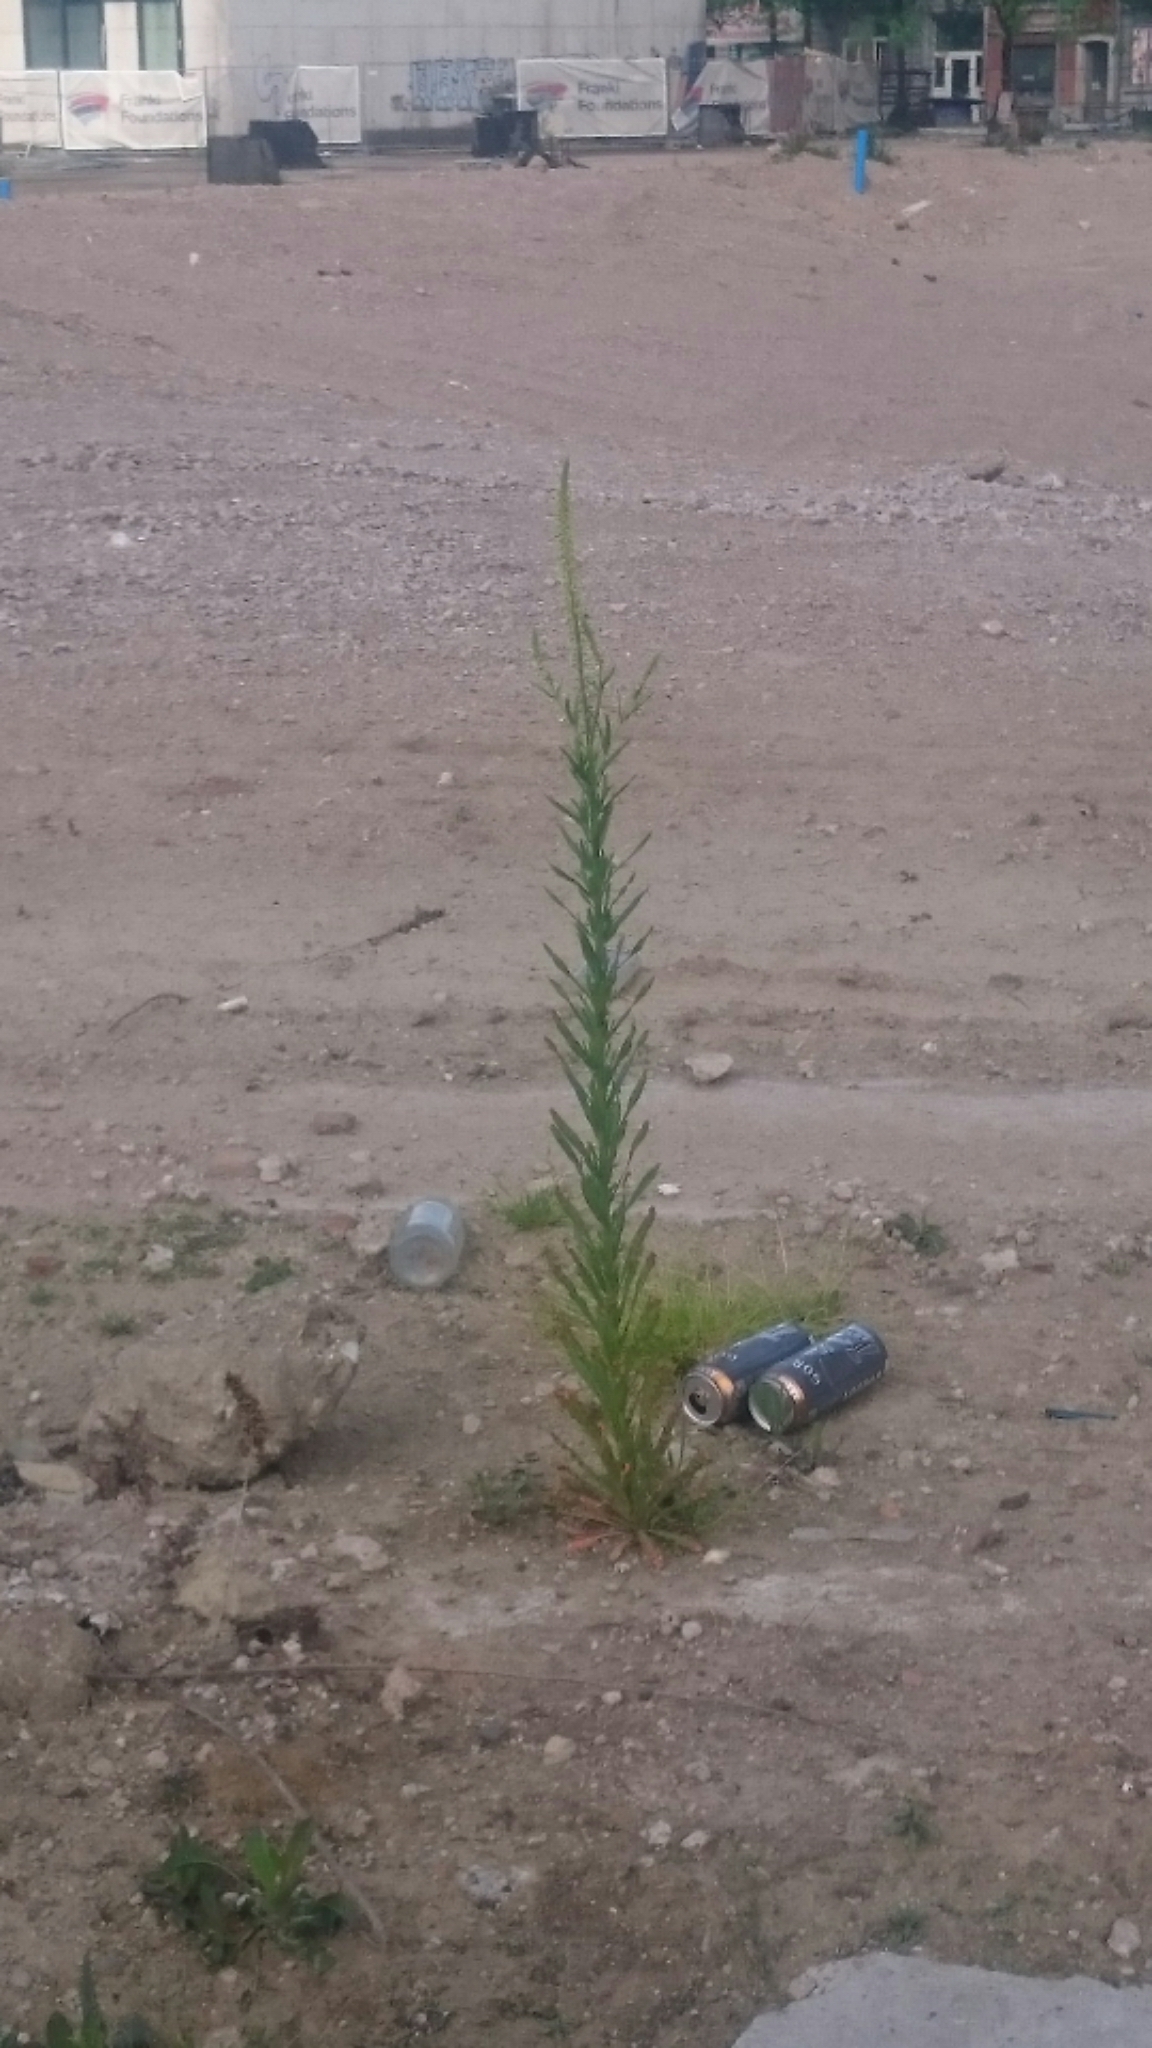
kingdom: Plantae
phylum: Tracheophyta
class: Magnoliopsida
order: Brassicales
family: Resedaceae
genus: Reseda
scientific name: Reseda luteola
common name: Weld
